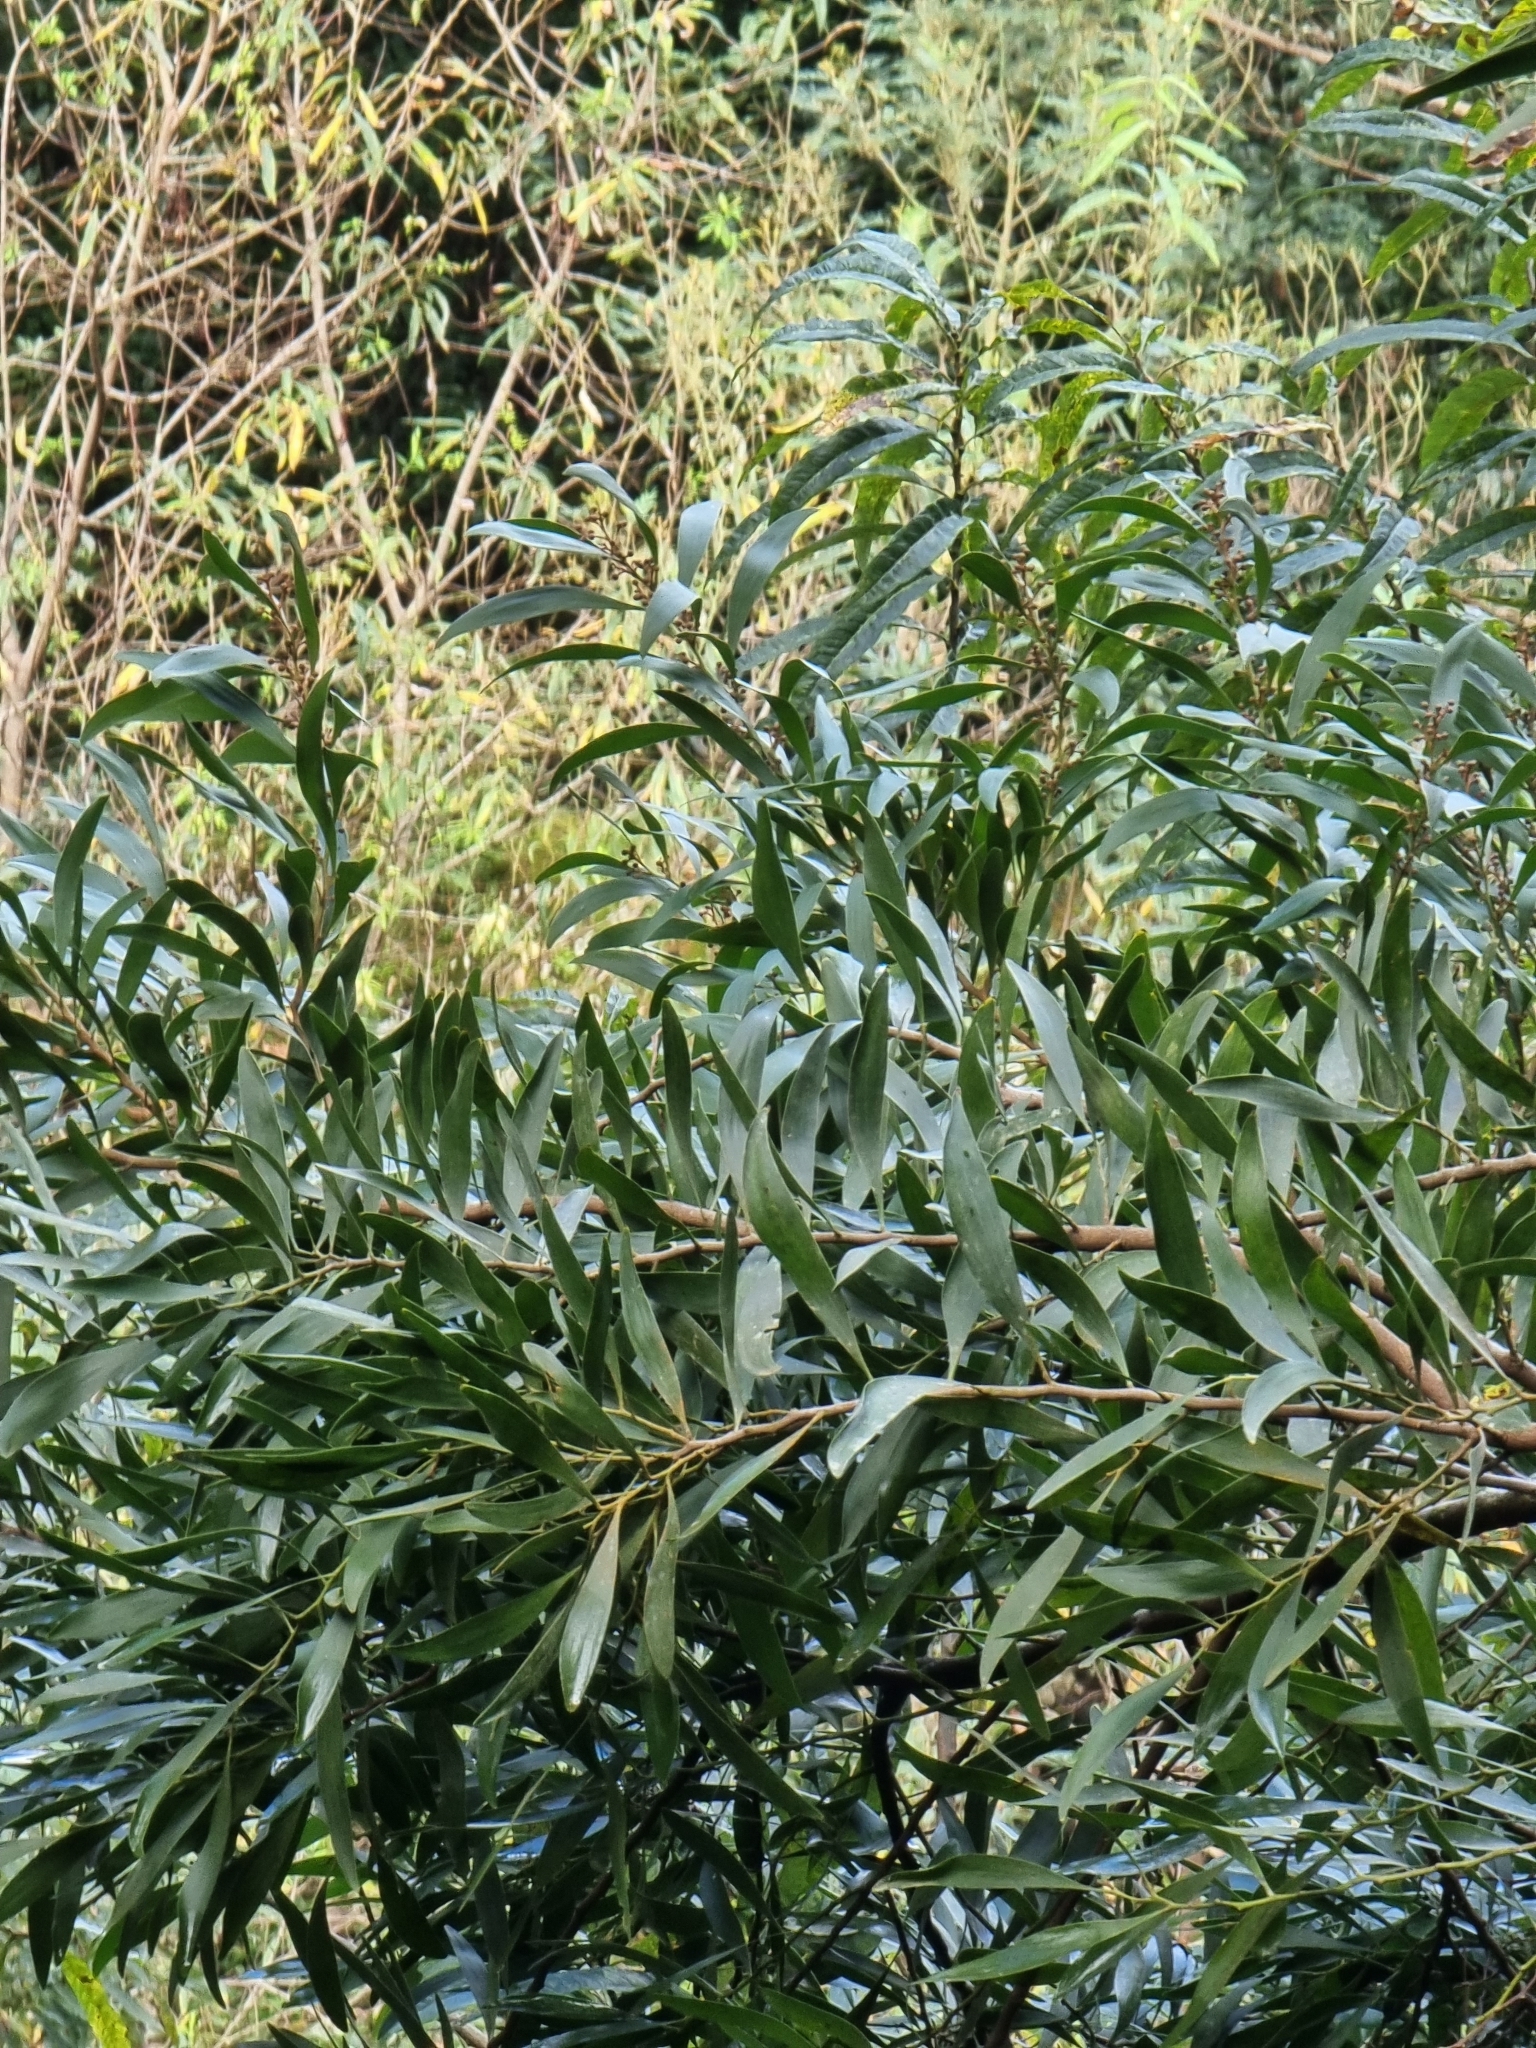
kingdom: Plantae
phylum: Tracheophyta
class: Magnoliopsida
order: Fabales
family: Fabaceae
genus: Acacia
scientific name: Acacia melanoxylon
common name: Blackwood
